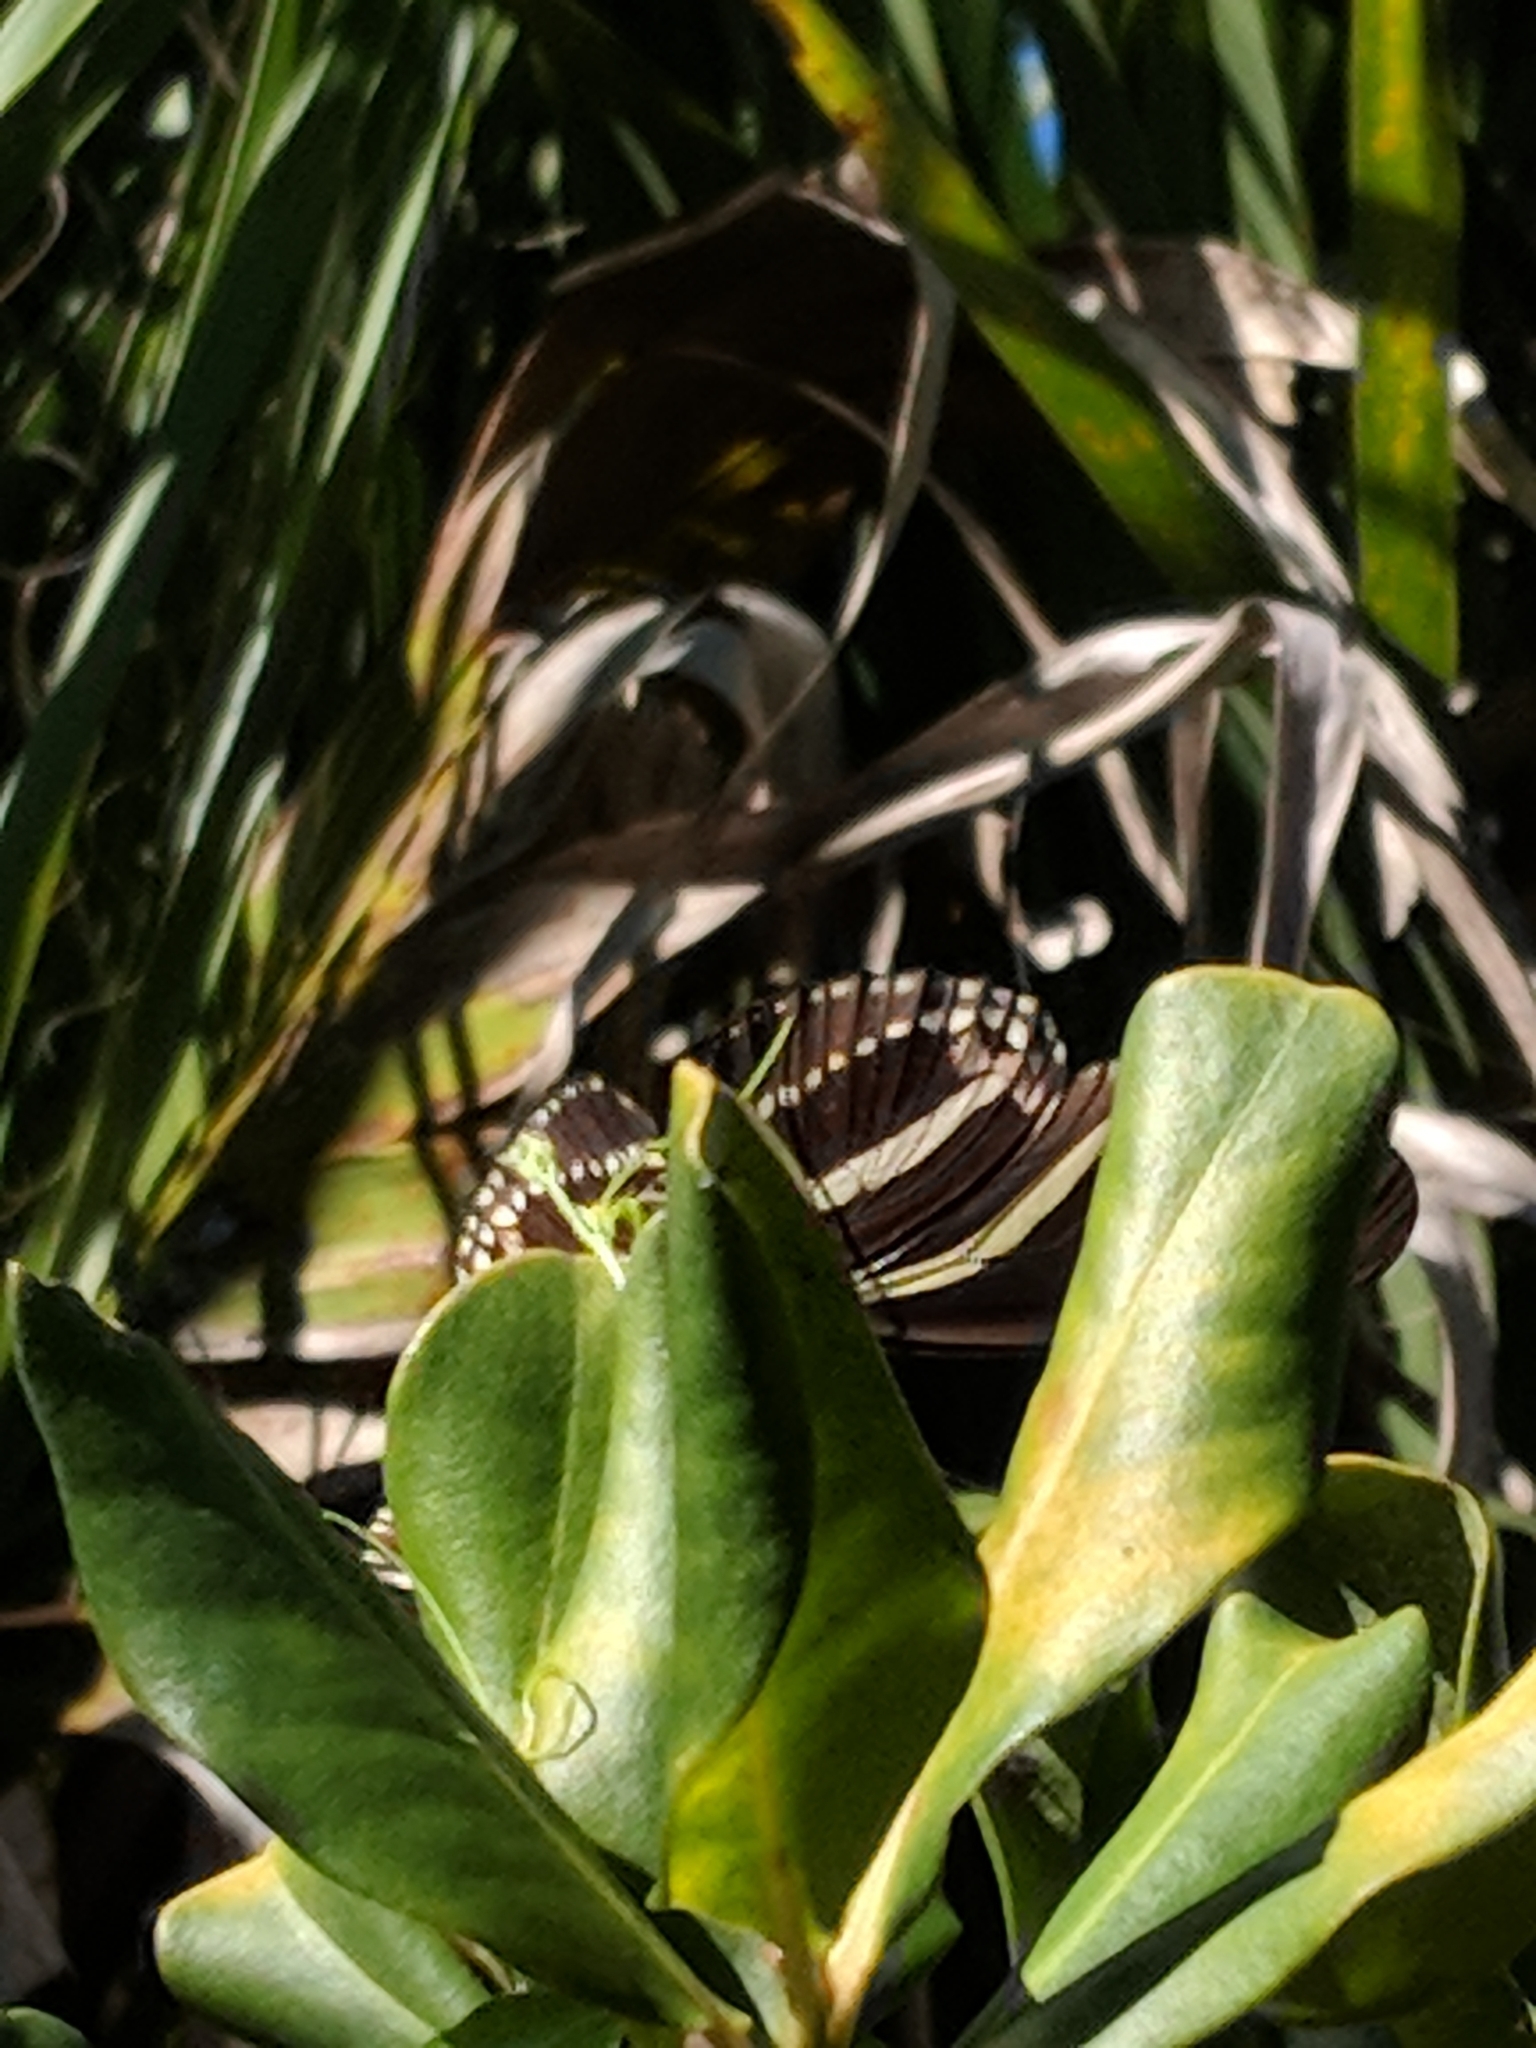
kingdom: Animalia
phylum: Arthropoda
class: Insecta
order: Lepidoptera
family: Nymphalidae
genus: Heliconius
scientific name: Heliconius charithonia
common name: Zebra long wing
